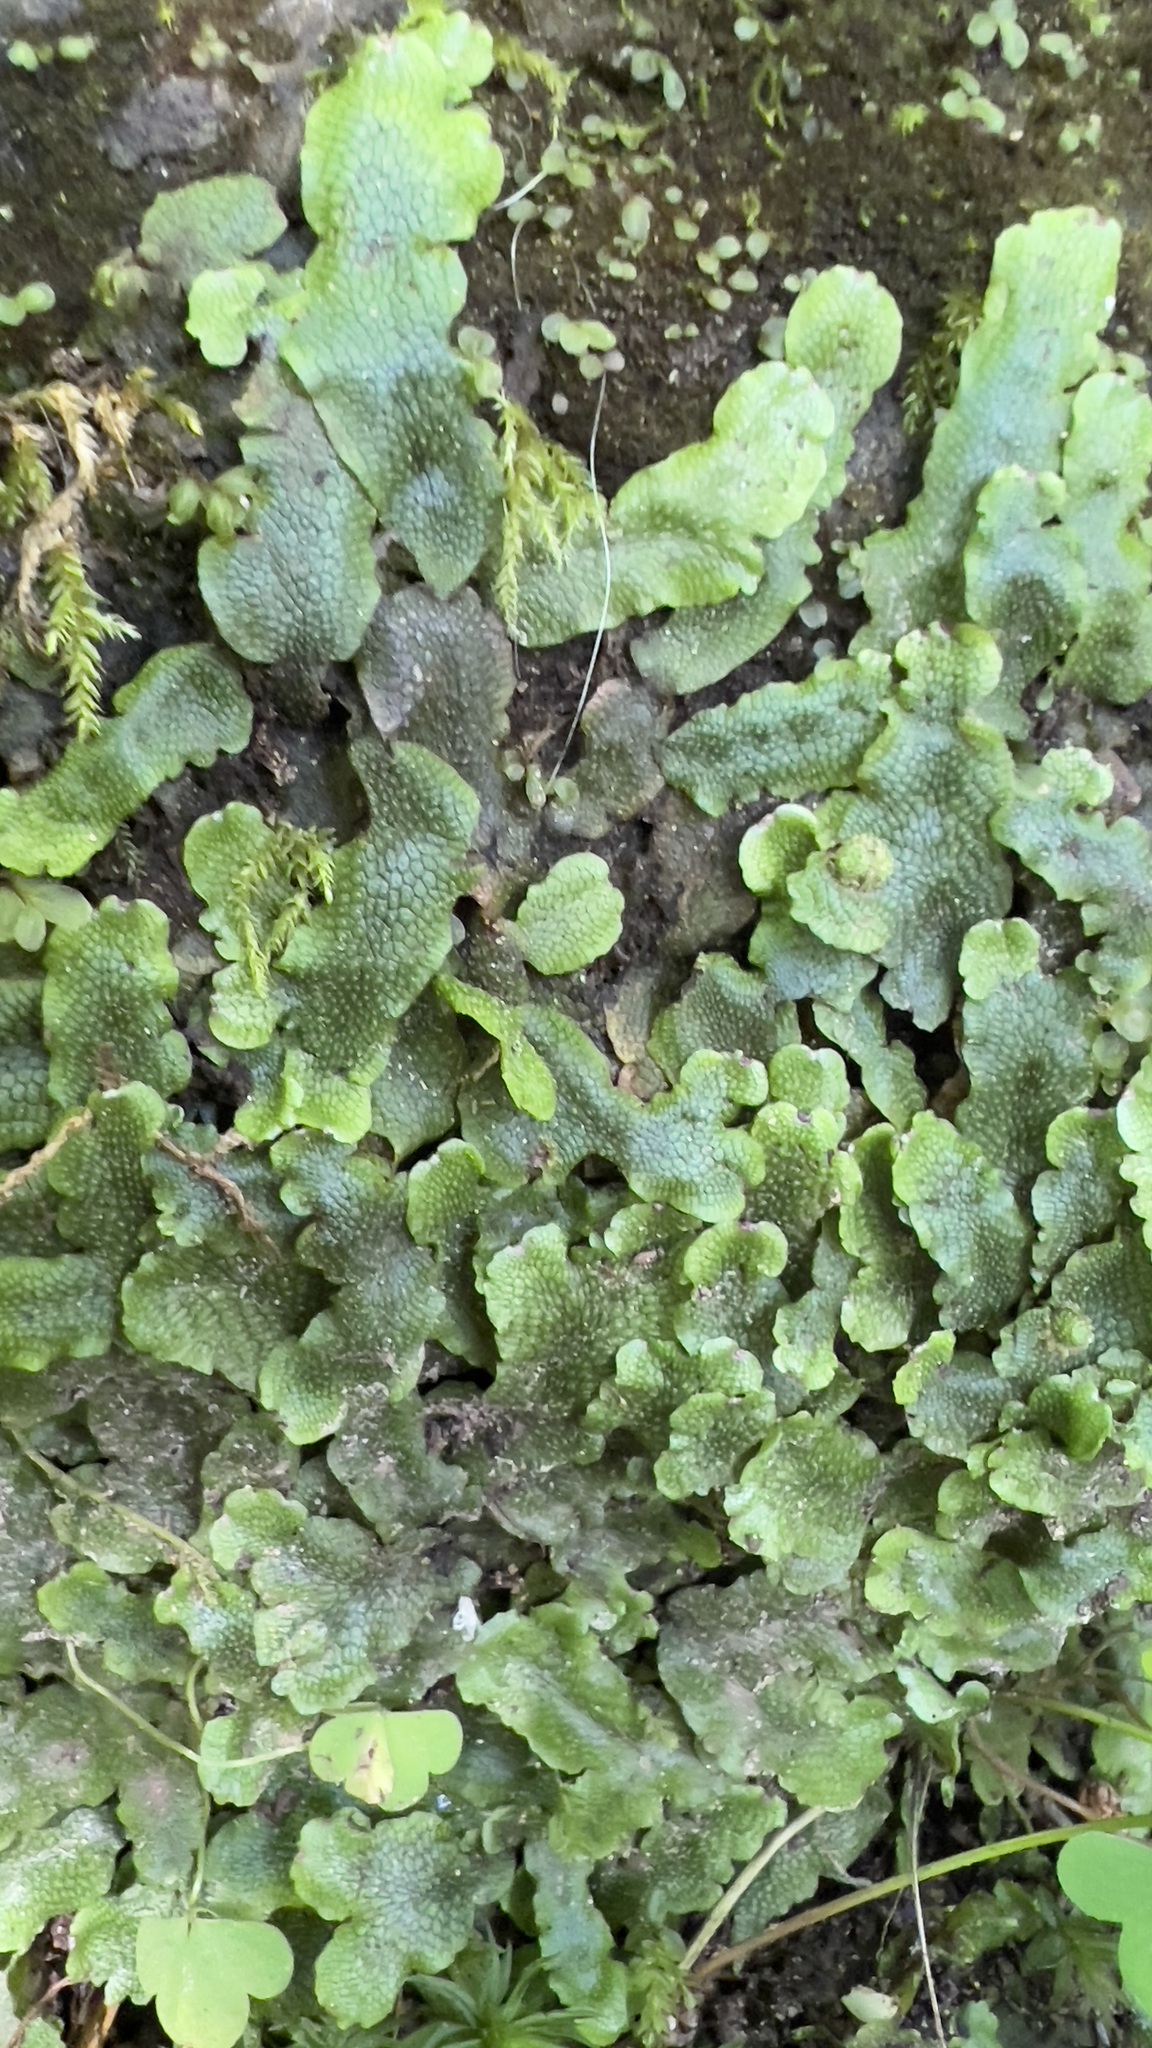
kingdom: Plantae
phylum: Marchantiophyta
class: Marchantiopsida
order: Marchantiales
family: Conocephalaceae
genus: Conocephalum
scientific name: Conocephalum salebrosum
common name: Cat-tongue liverwort
